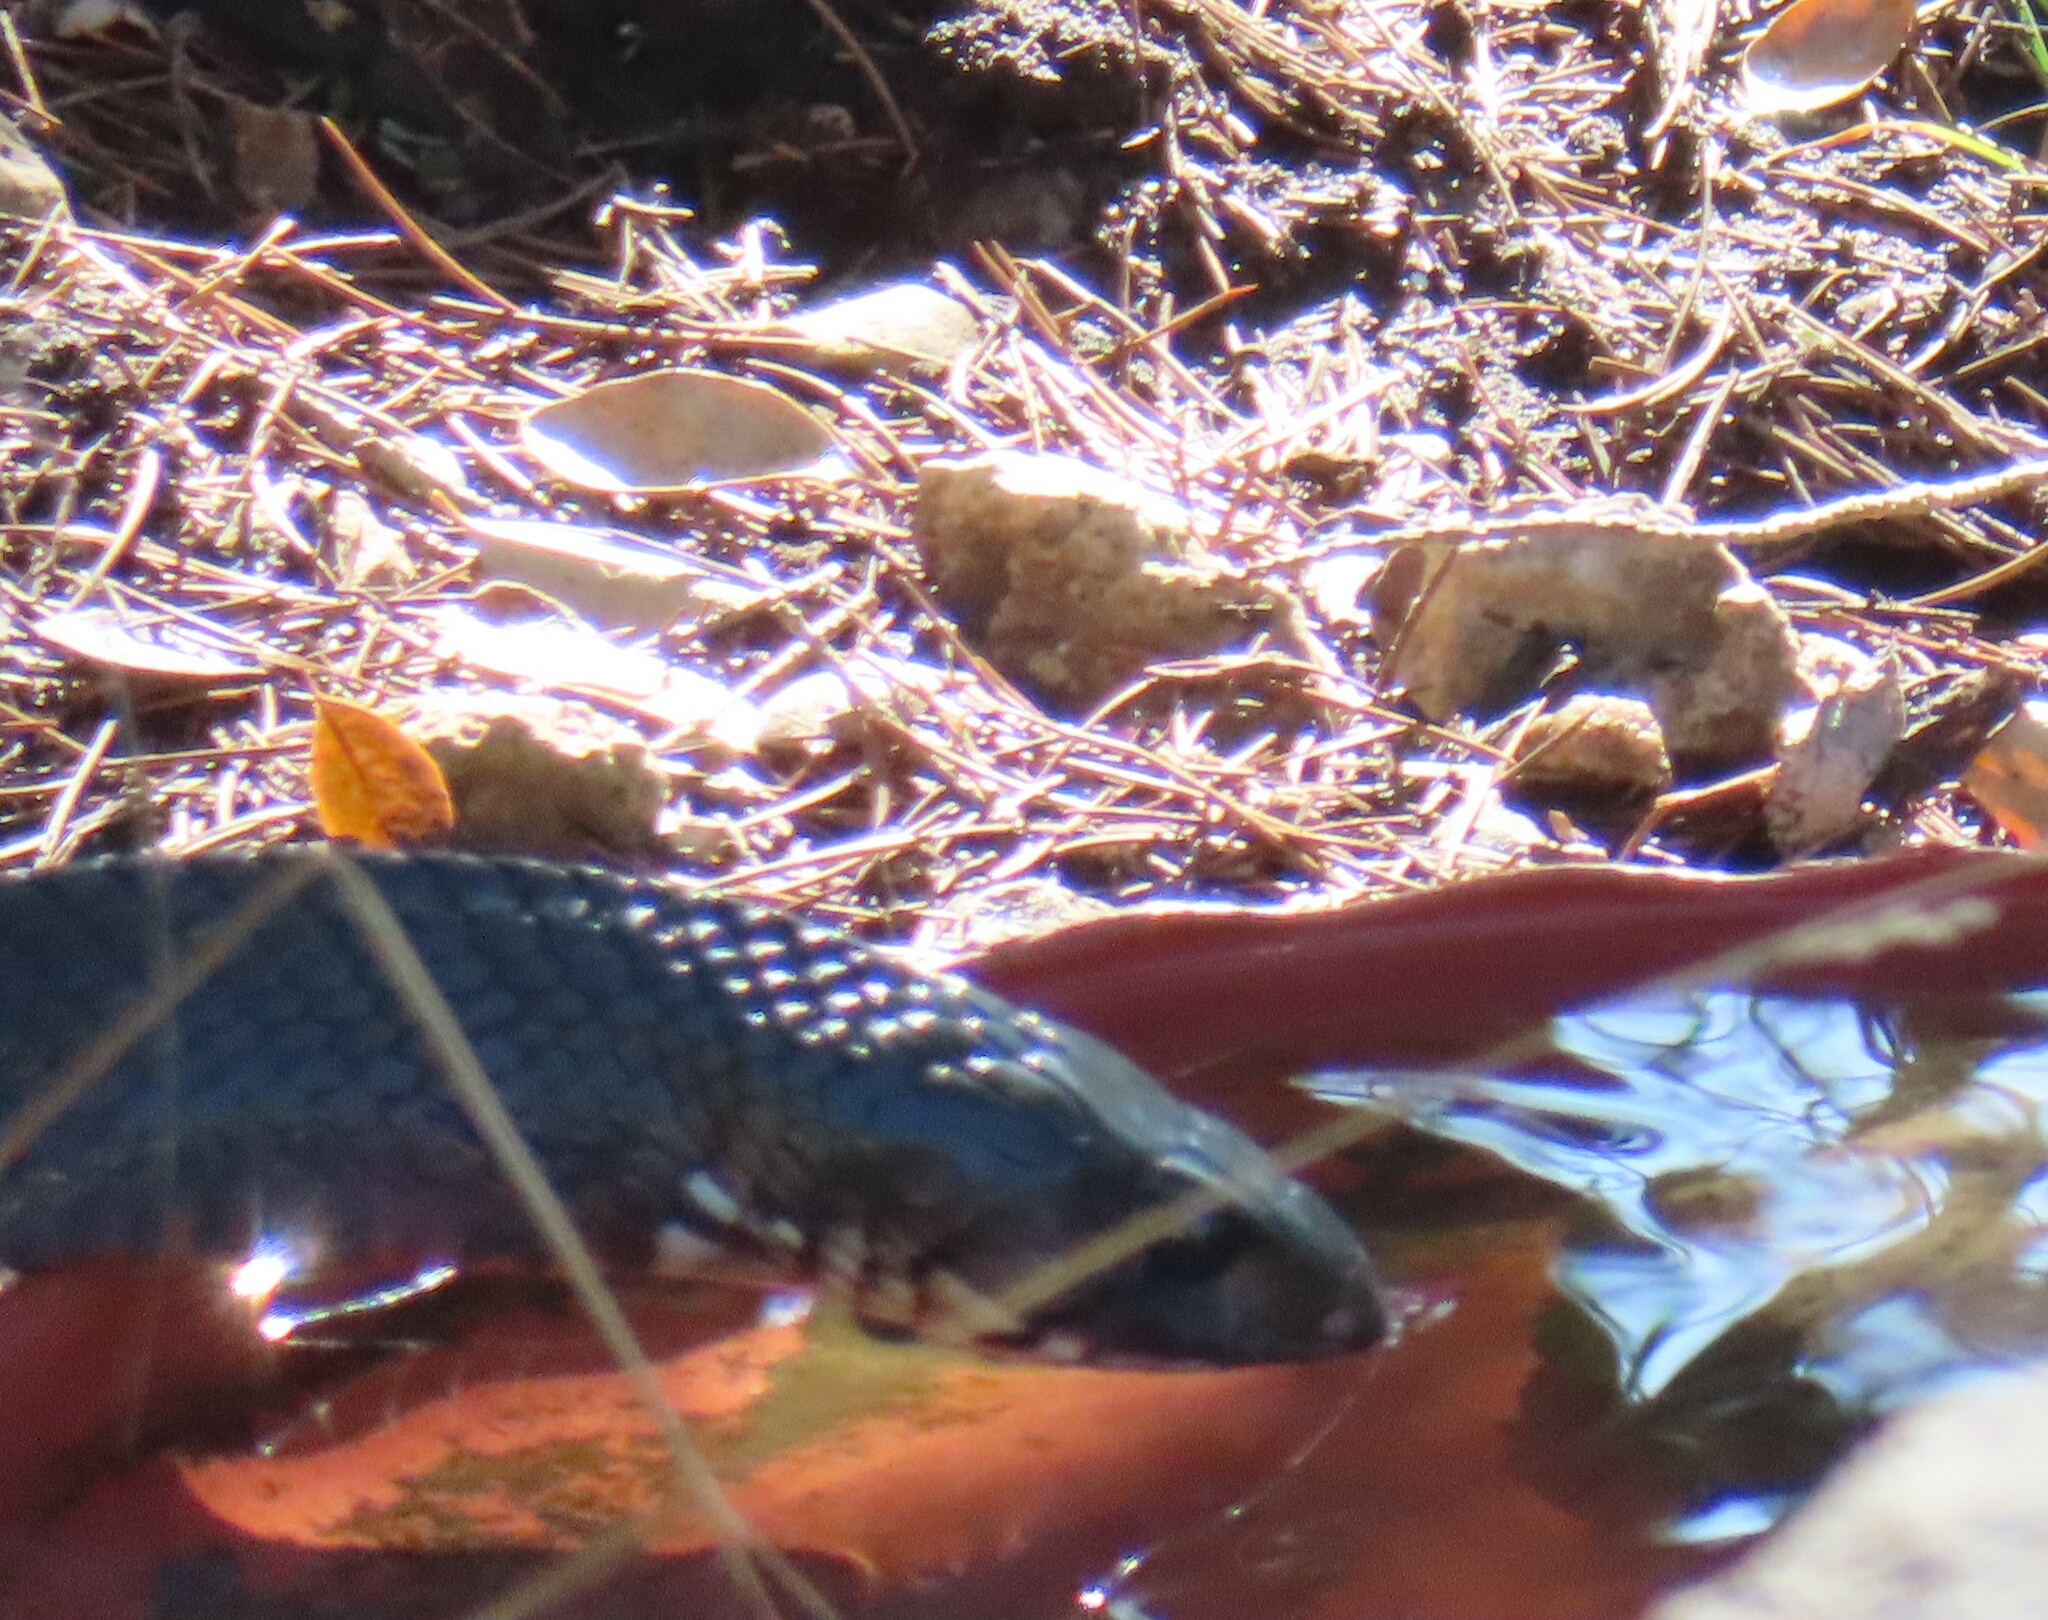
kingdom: Animalia
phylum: Chordata
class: Squamata
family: Colubridae
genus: Drymarchon
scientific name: Drymarchon melanurus
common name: Central american indigo snake
